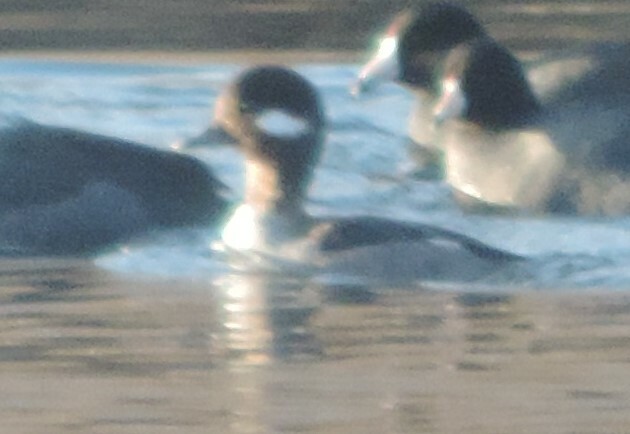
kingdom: Animalia
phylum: Chordata
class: Aves
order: Anseriformes
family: Anatidae
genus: Bucephala
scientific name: Bucephala albeola
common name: Bufflehead
